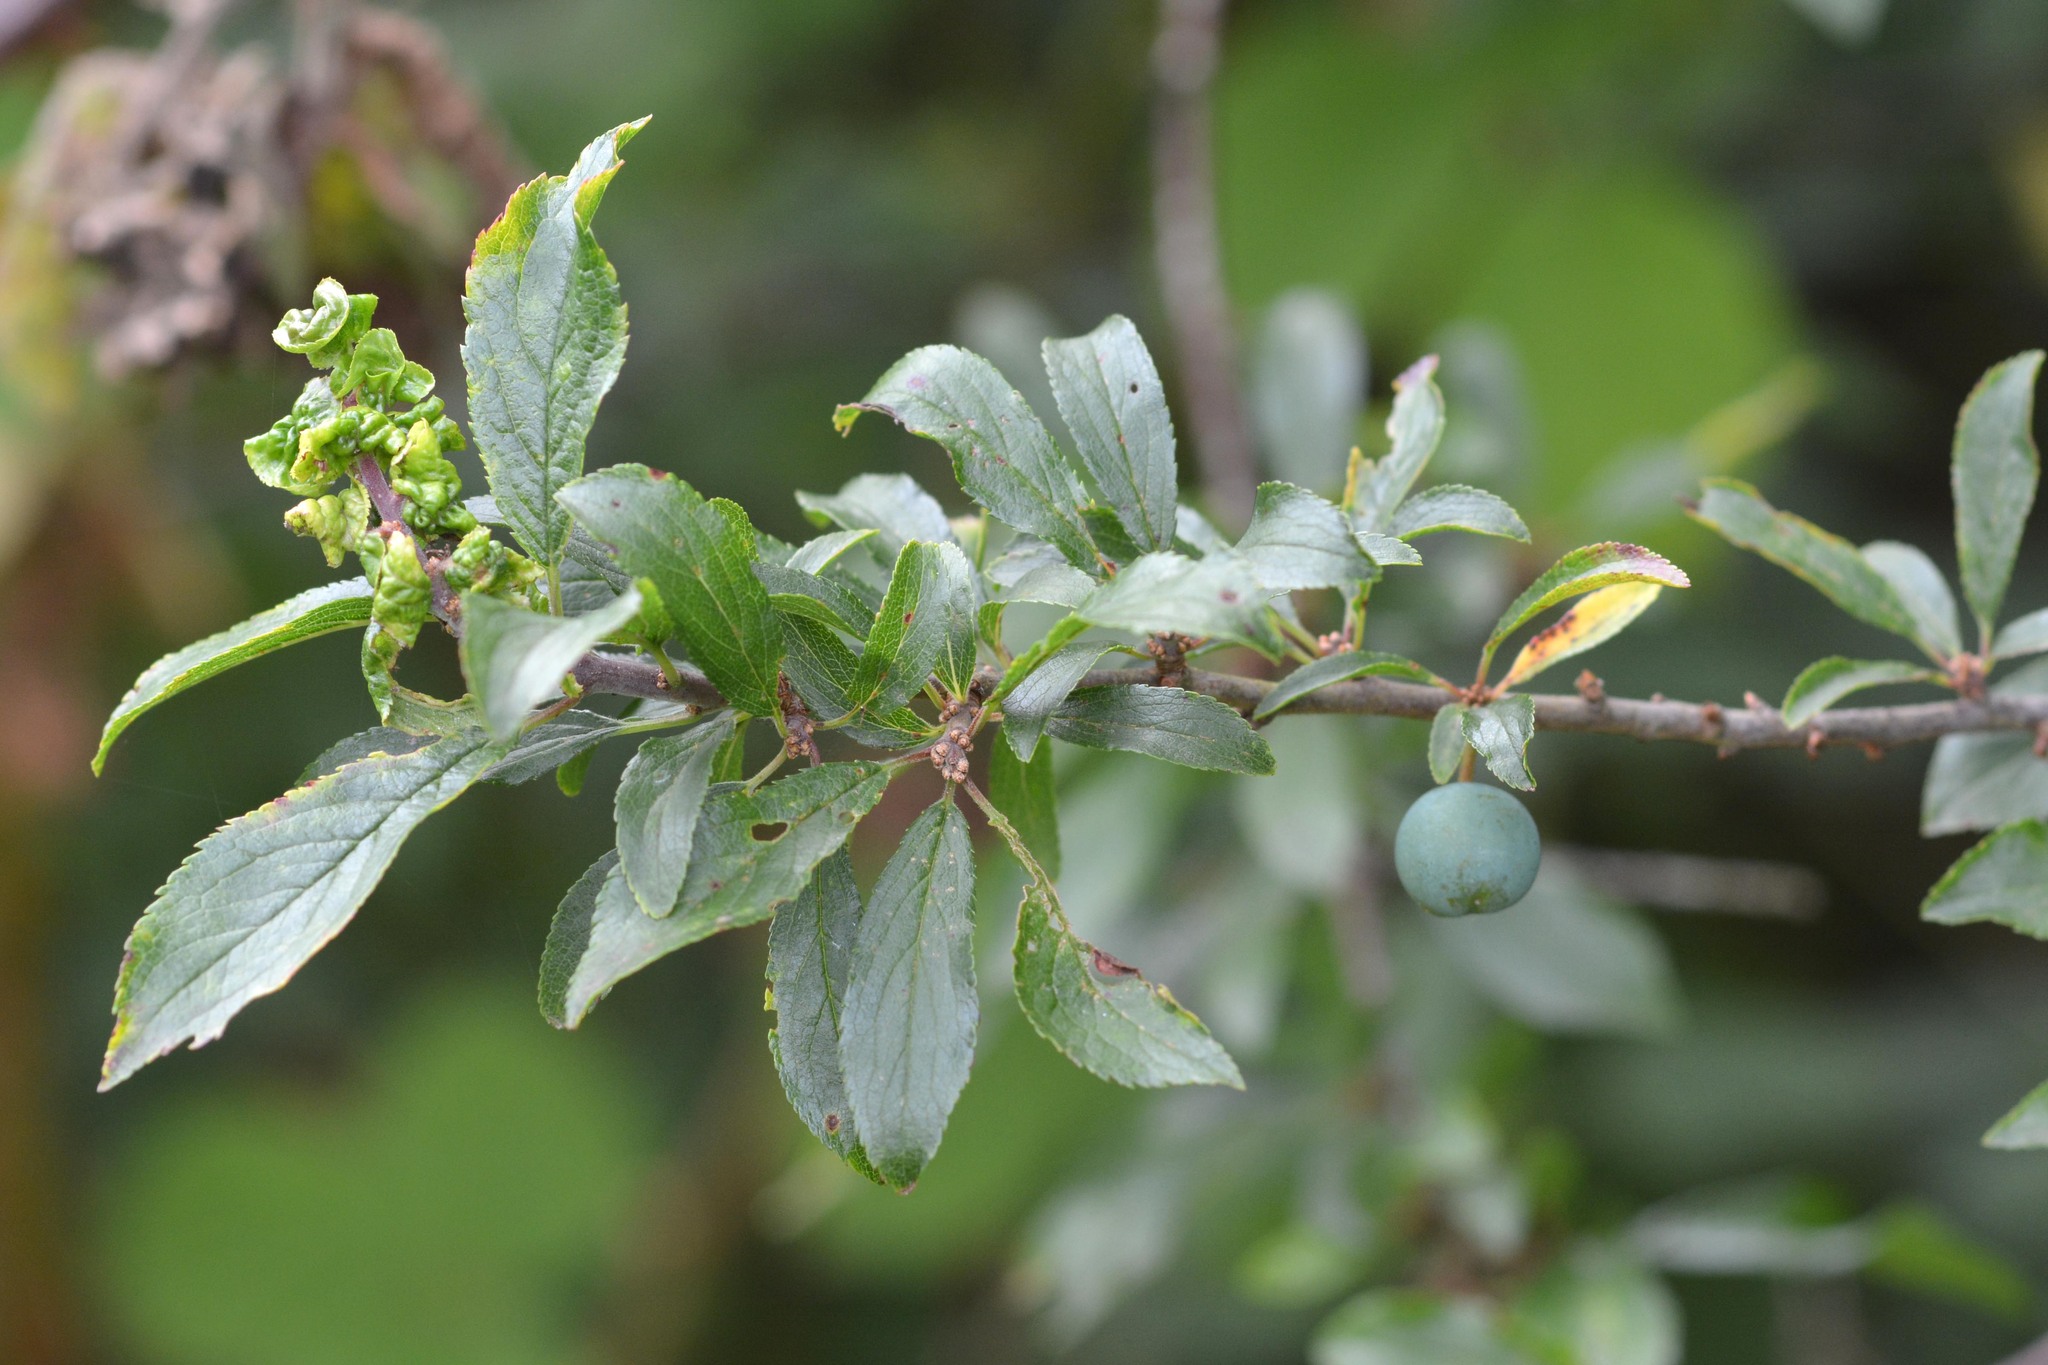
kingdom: Plantae
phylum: Tracheophyta
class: Magnoliopsida
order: Rosales
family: Rosaceae
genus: Prunus
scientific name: Prunus spinosa
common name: Blackthorn
